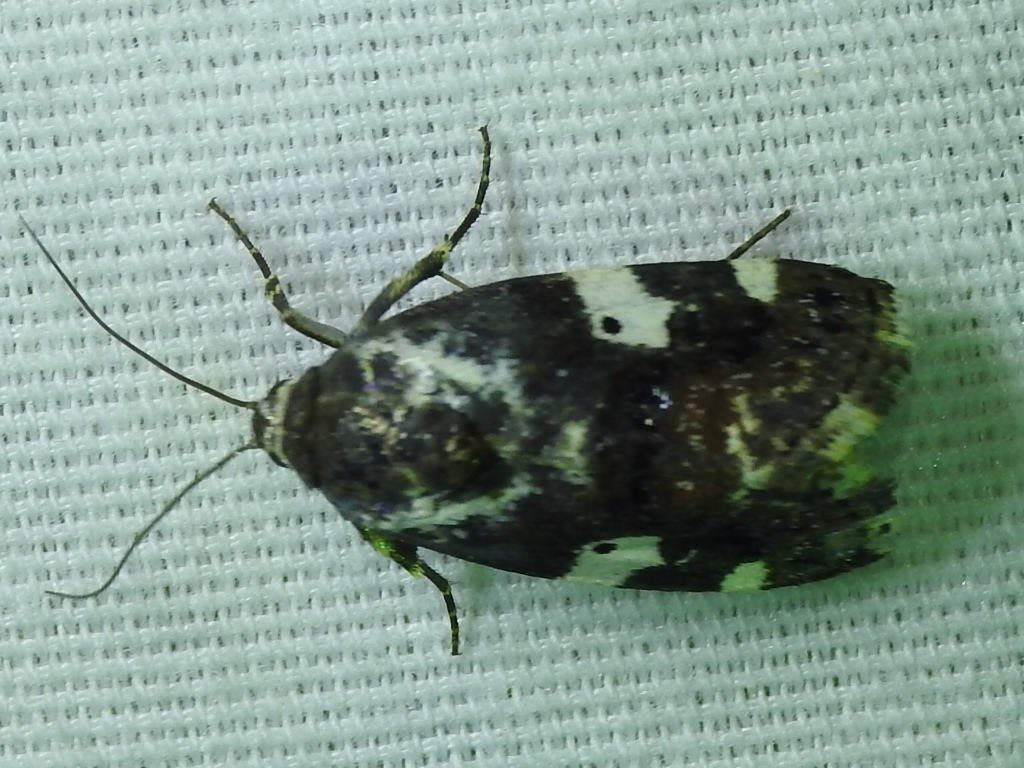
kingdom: Animalia
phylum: Arthropoda
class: Insecta
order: Lepidoptera
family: Noctuidae
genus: Acontia
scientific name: Acontia aprica
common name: Nun
